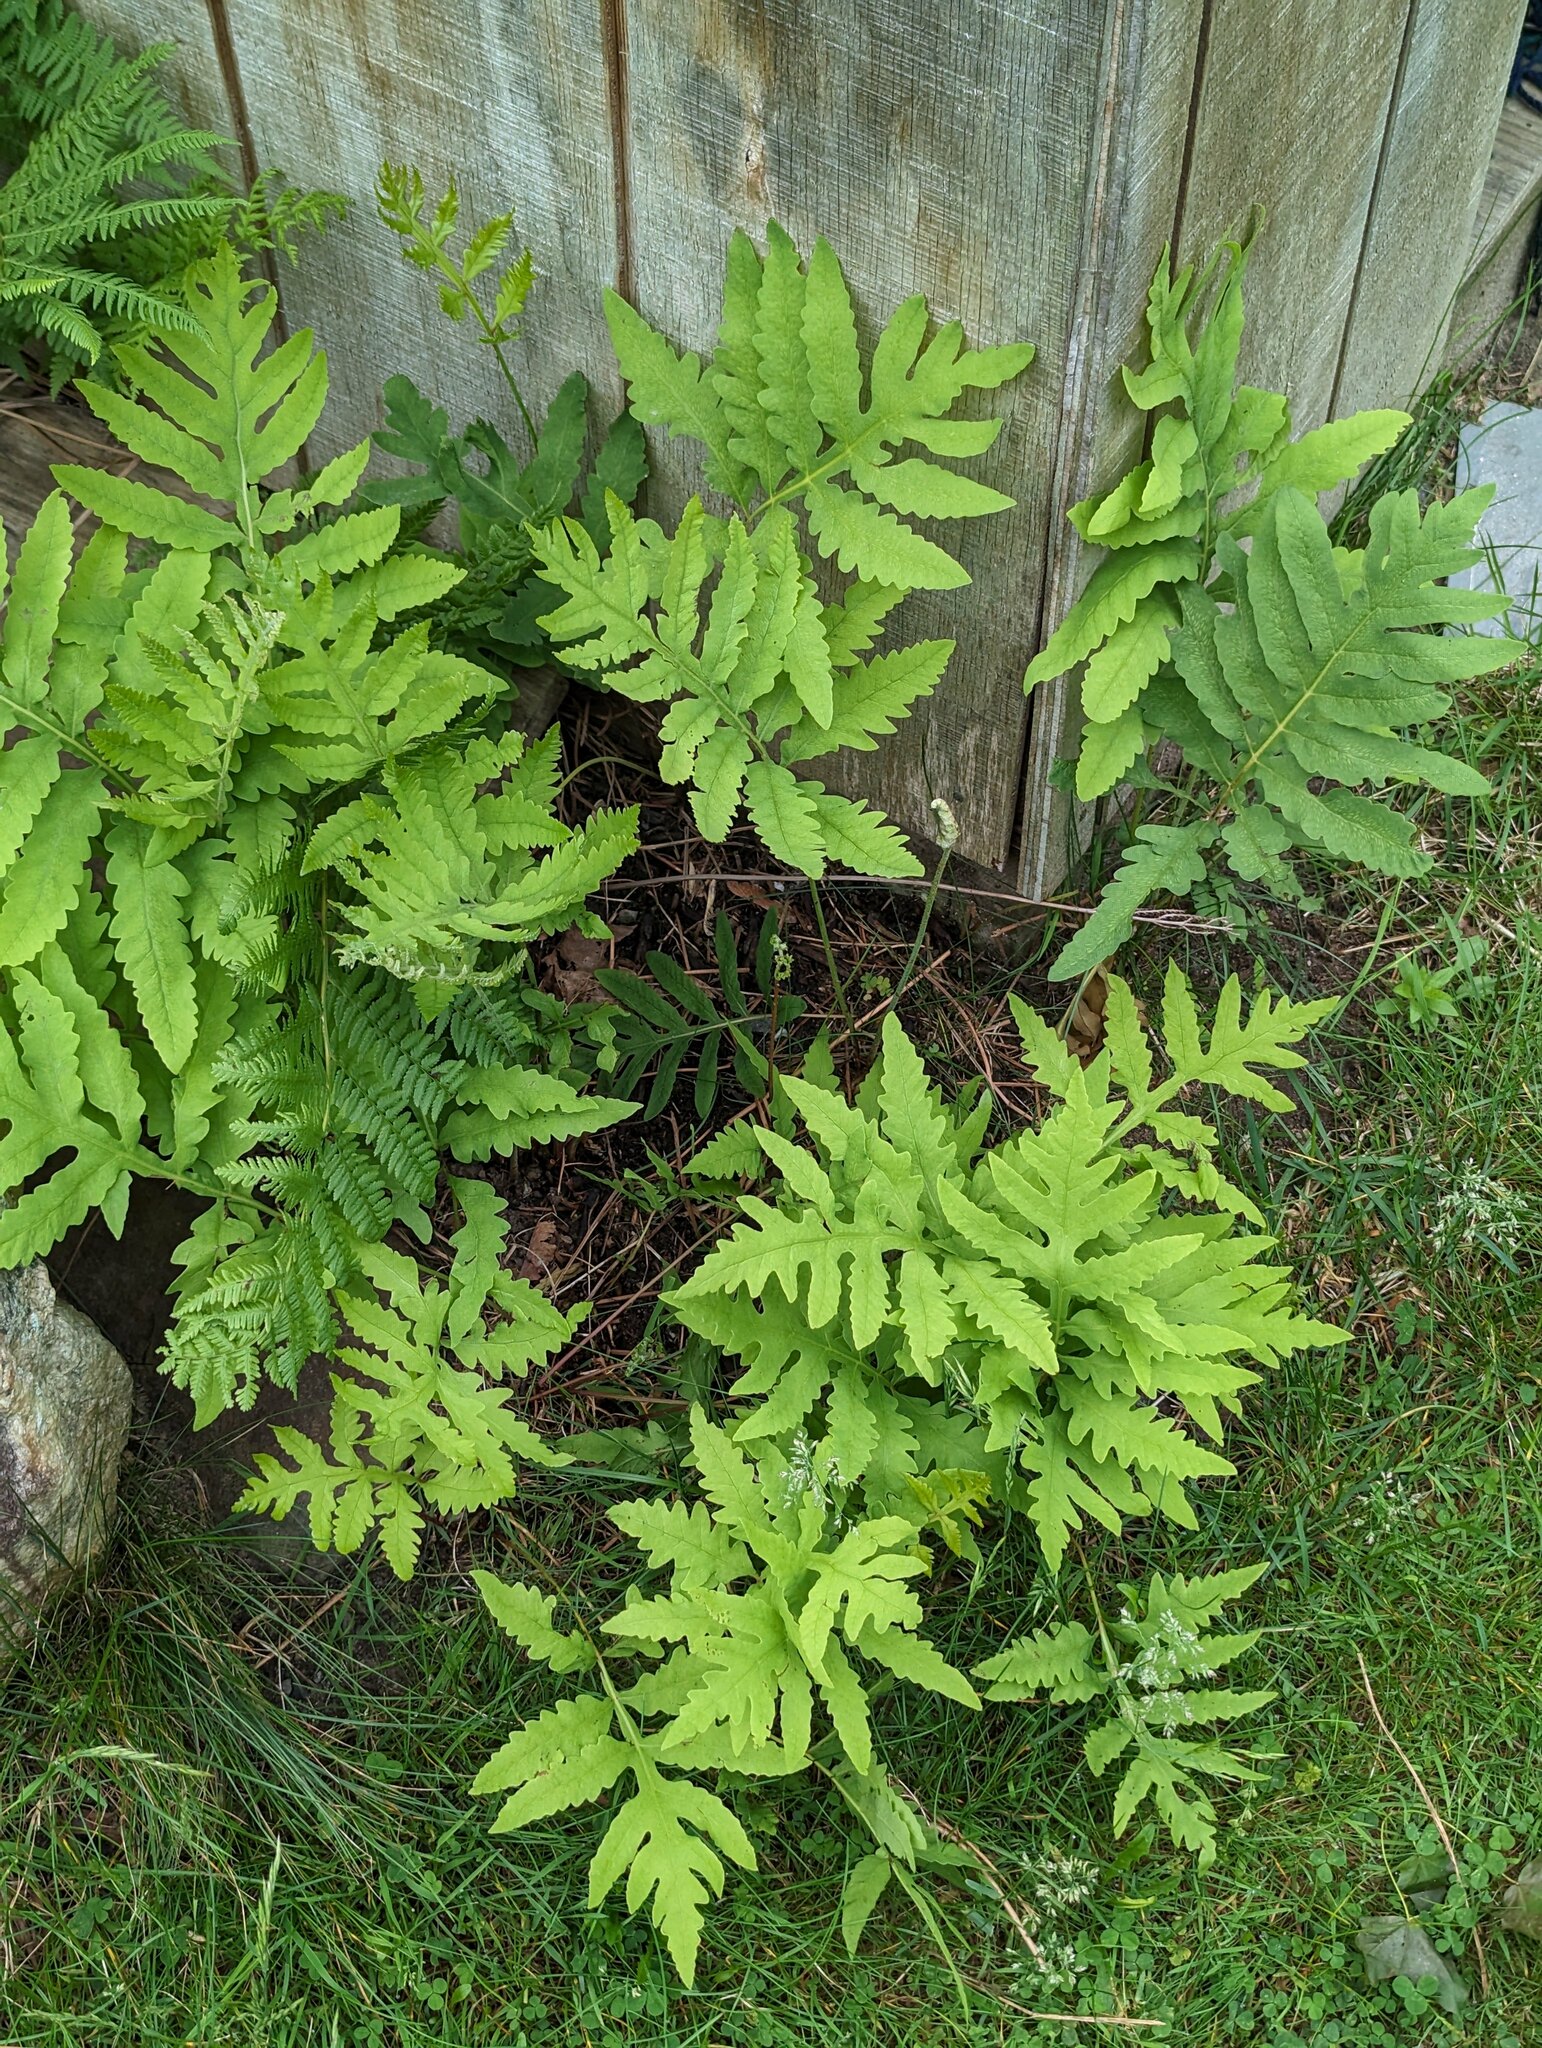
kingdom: Plantae
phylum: Tracheophyta
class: Polypodiopsida
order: Polypodiales
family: Onocleaceae
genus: Onoclea
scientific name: Onoclea sensibilis
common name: Sensitive fern
